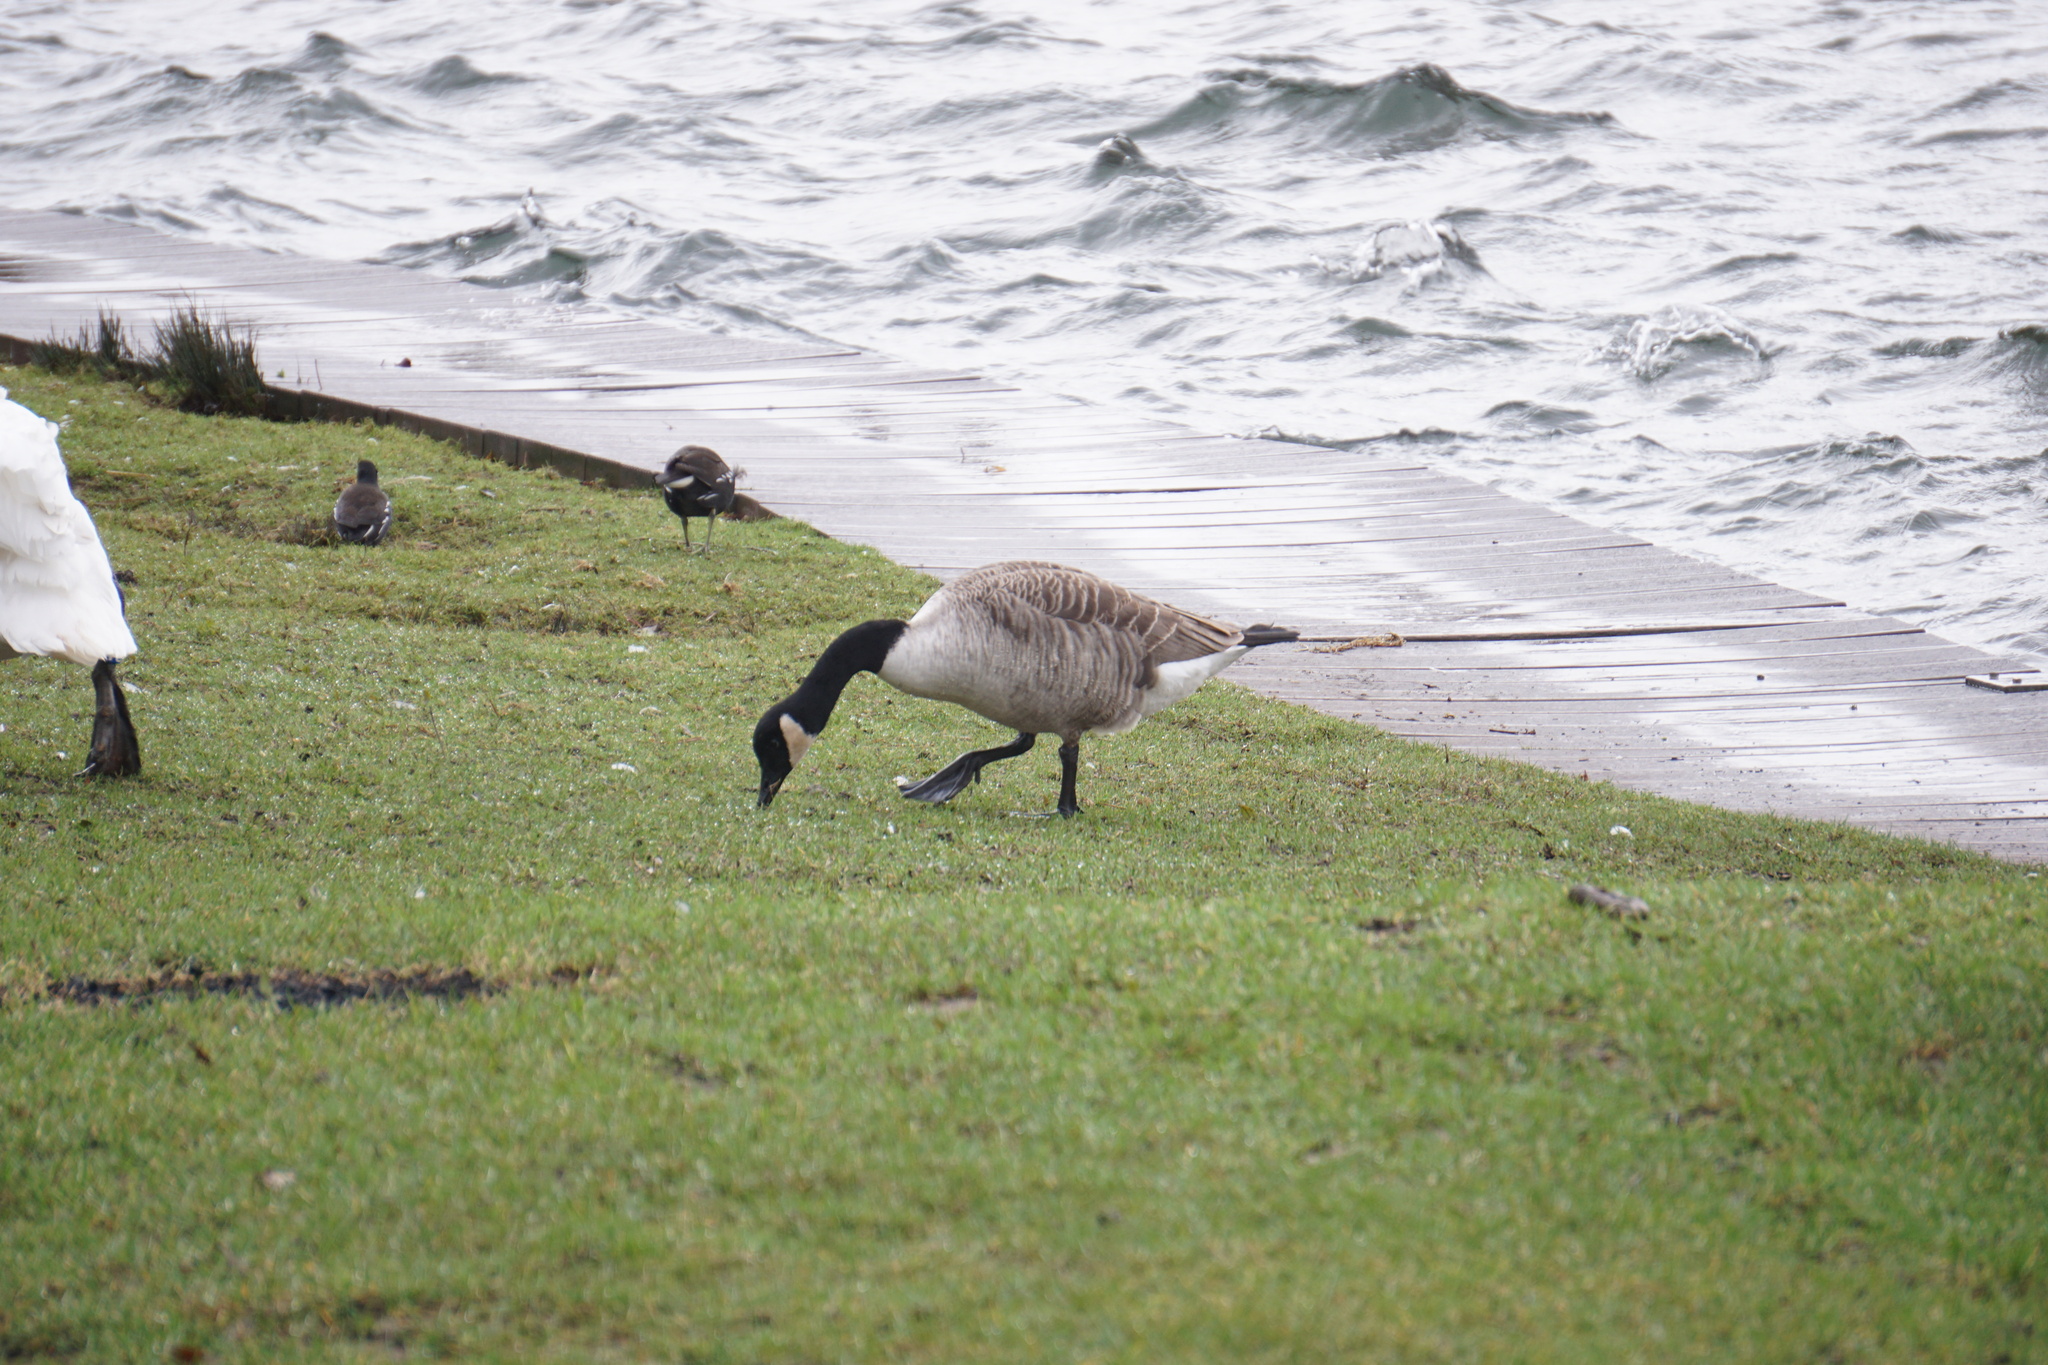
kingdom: Animalia
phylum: Chordata
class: Aves
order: Anseriformes
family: Anatidae
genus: Branta
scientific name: Branta canadensis
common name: Canada goose
